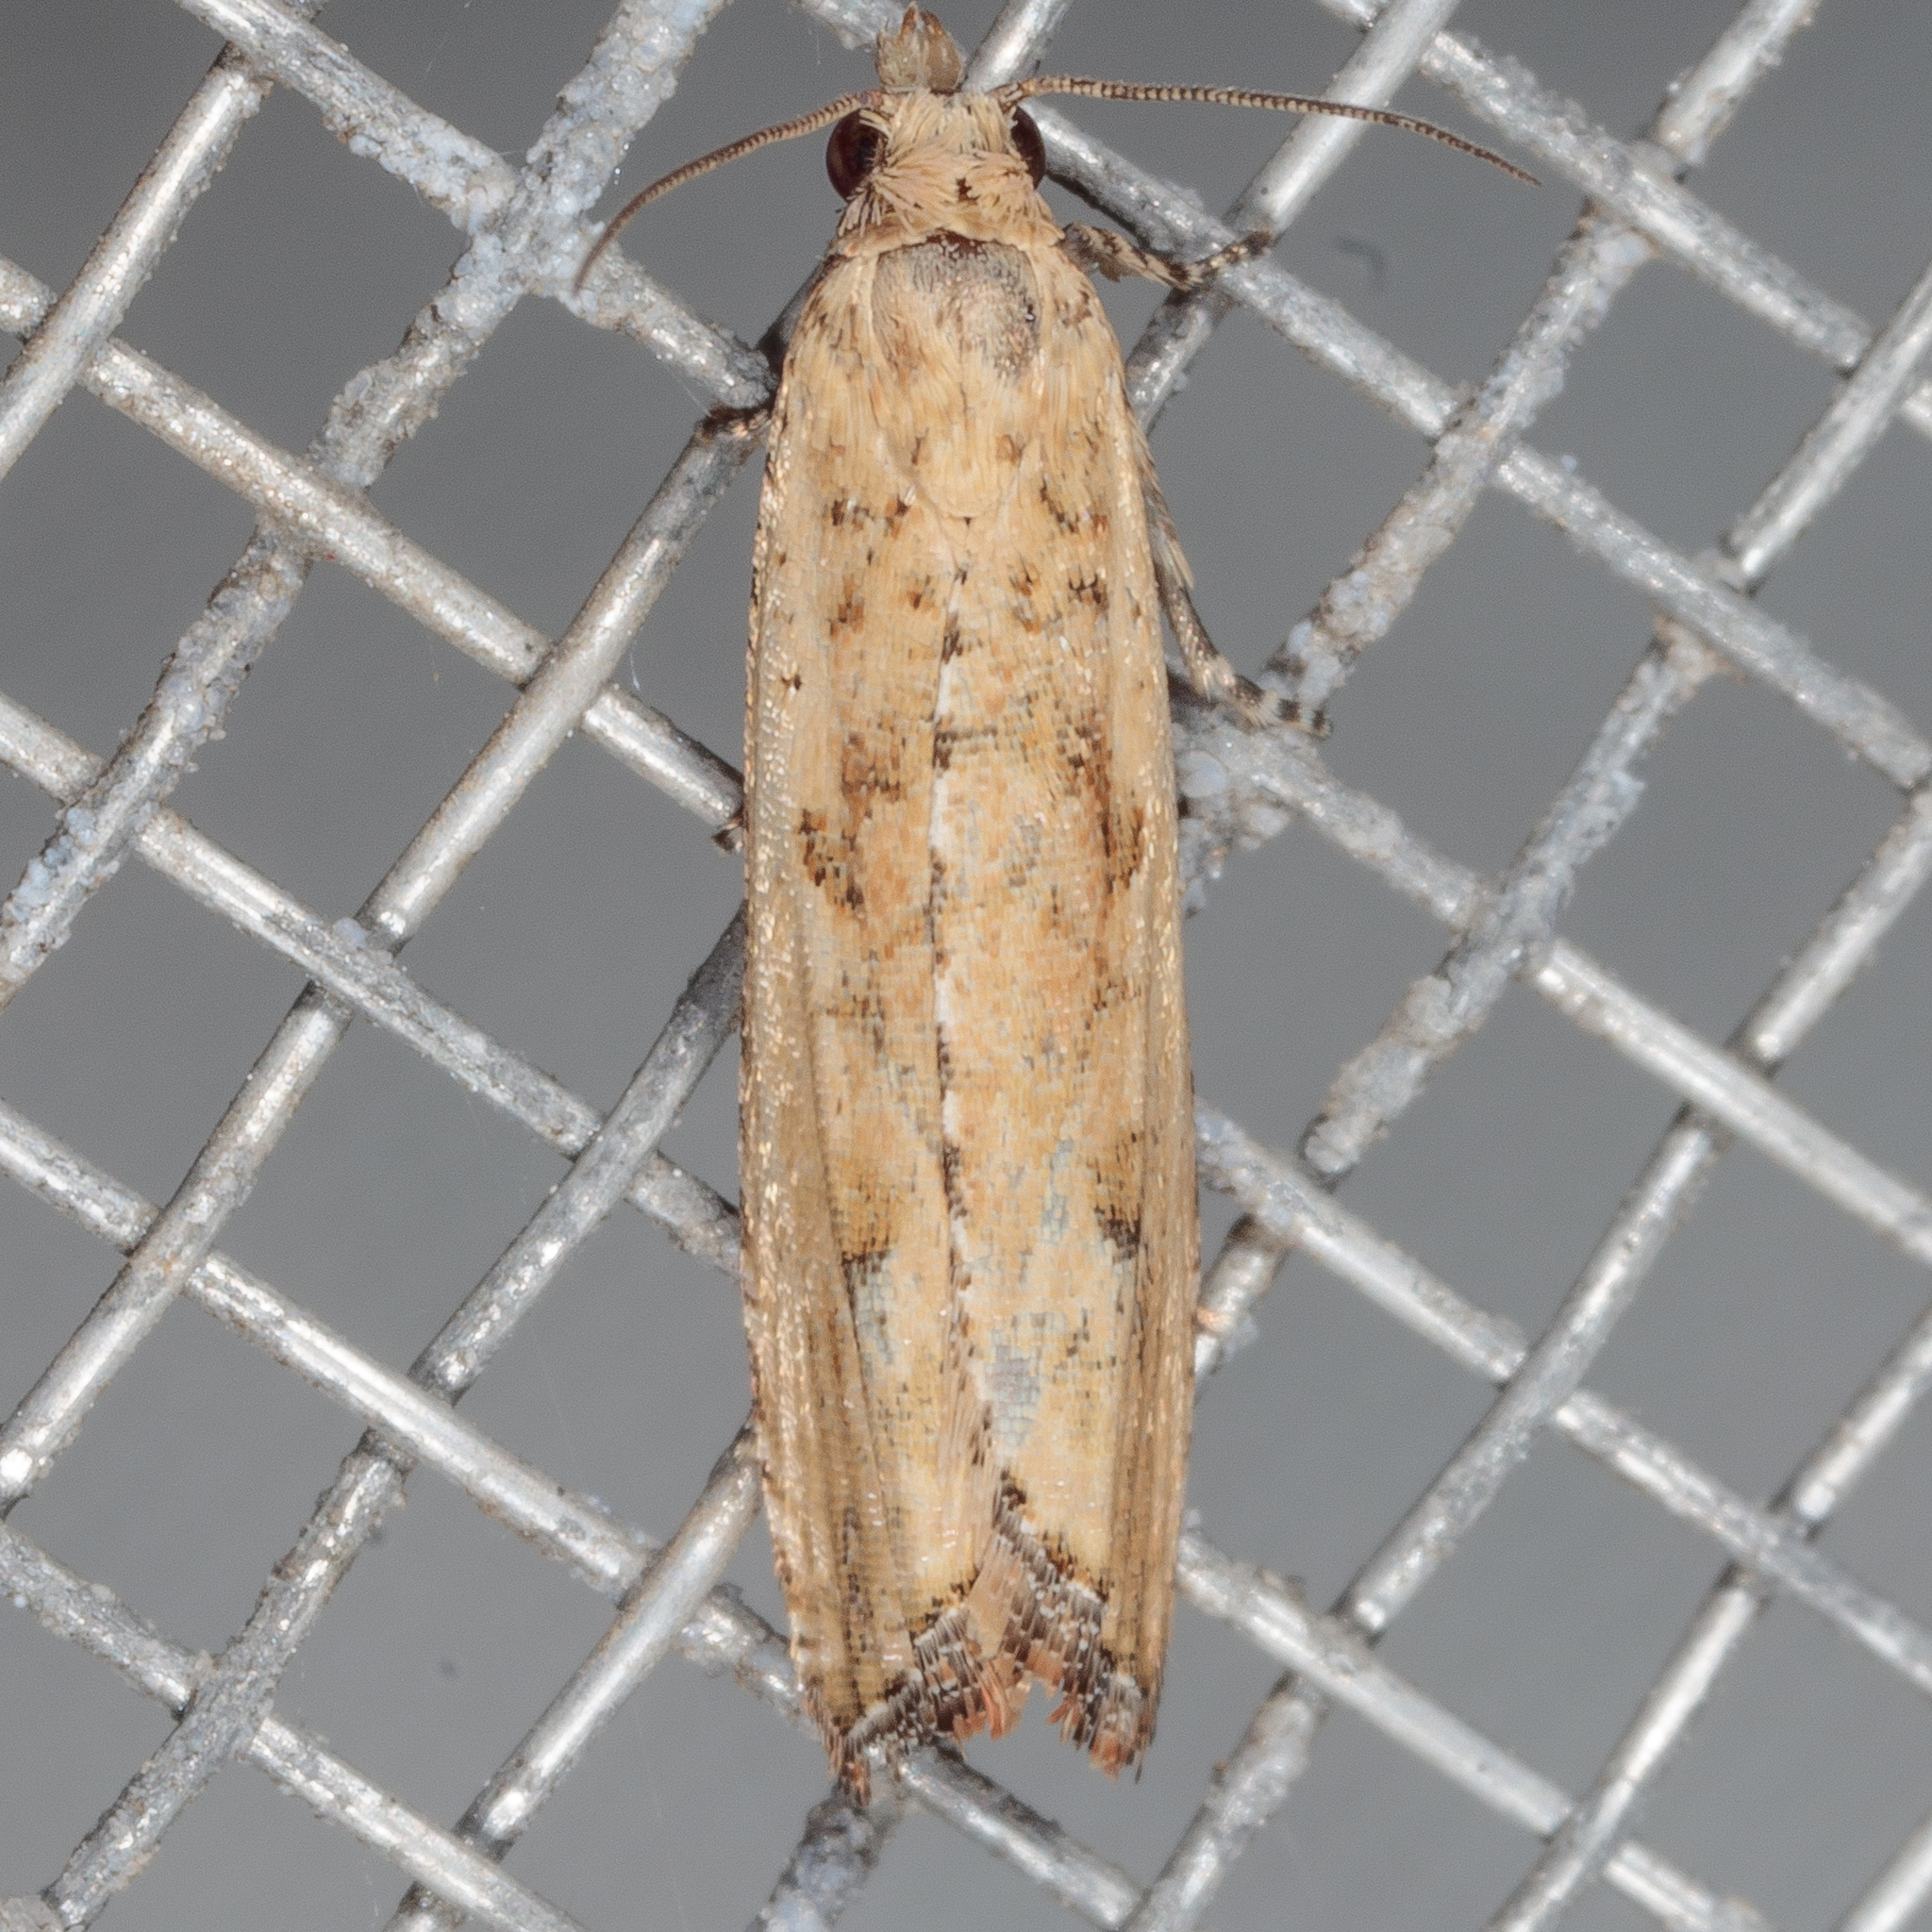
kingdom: Animalia
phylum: Arthropoda
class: Insecta
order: Lepidoptera
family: Tortricidae
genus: Bactra
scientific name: Bactra verutana
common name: Javelin moth
